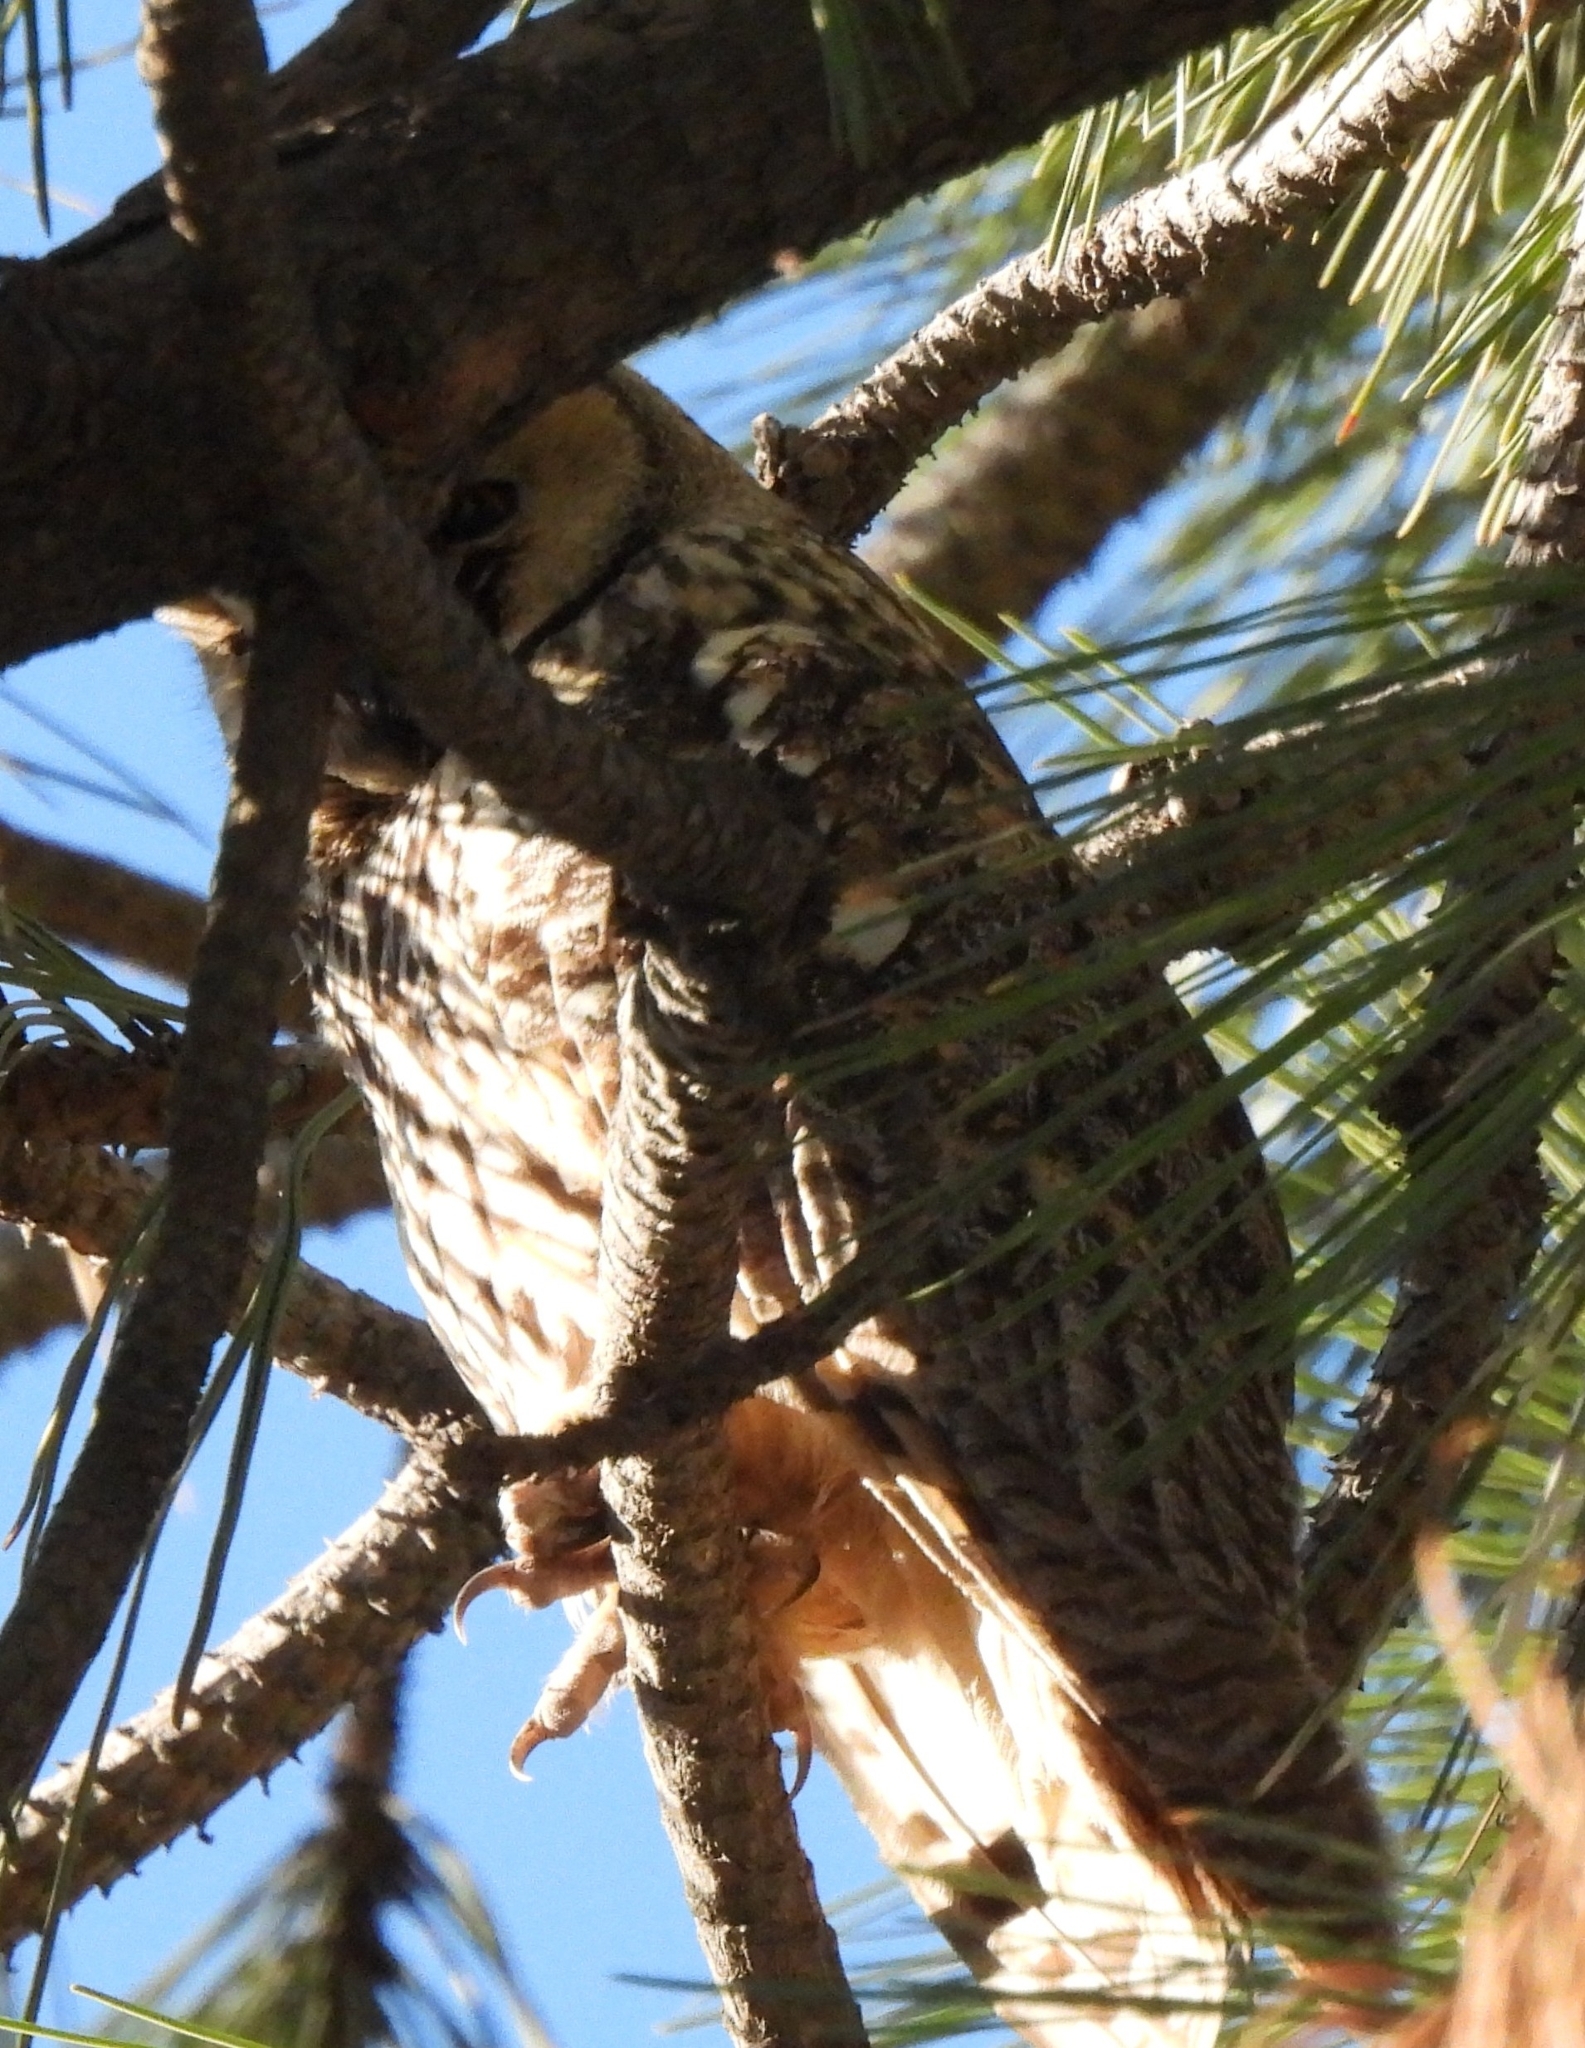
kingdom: Animalia
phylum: Chordata
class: Aves
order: Strigiformes
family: Strigidae
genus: Asio
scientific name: Asio otus
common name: Long-eared owl
